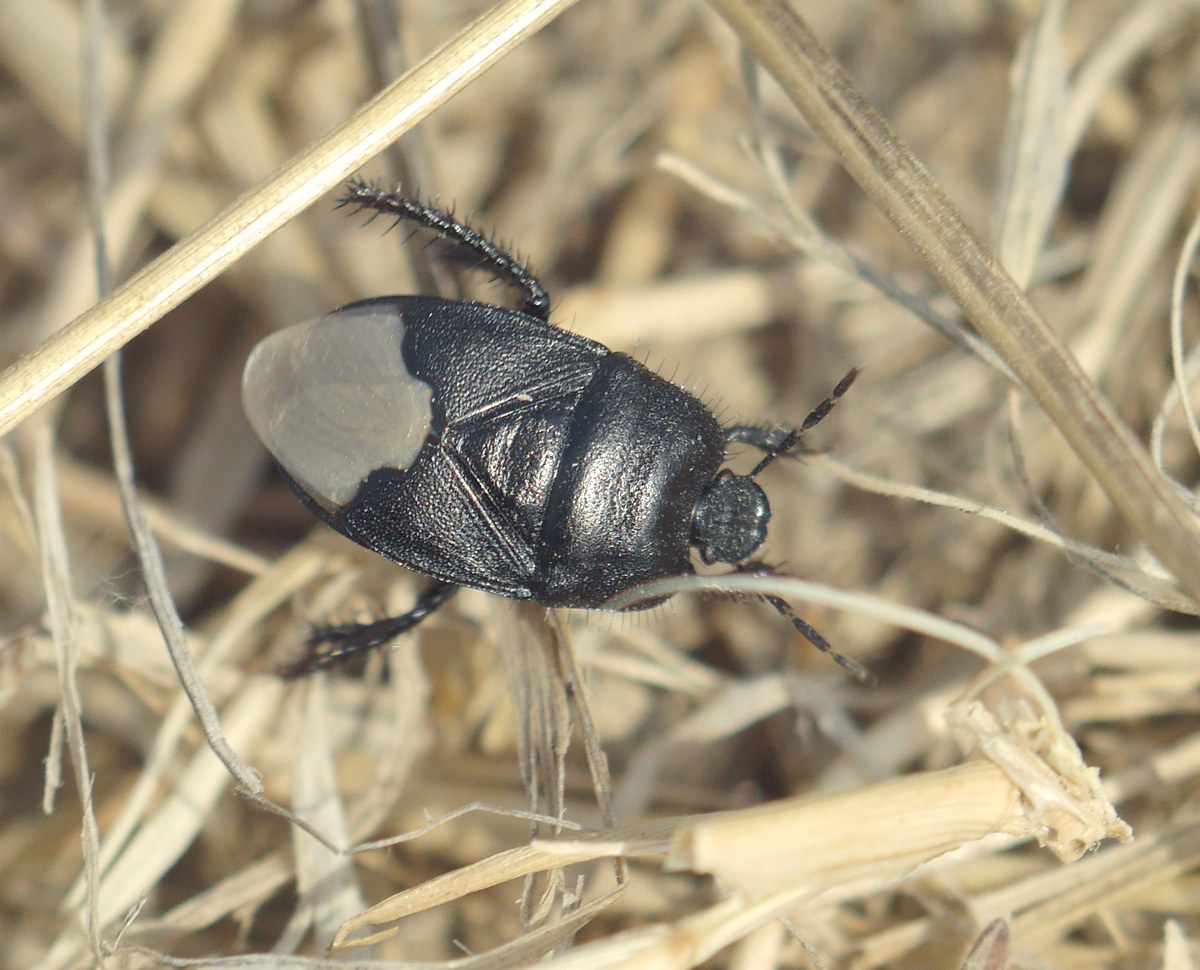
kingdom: Animalia
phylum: Arthropoda
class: Insecta
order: Hemiptera
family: Cydnidae
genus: Cydnus
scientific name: Cydnus aterrimus
